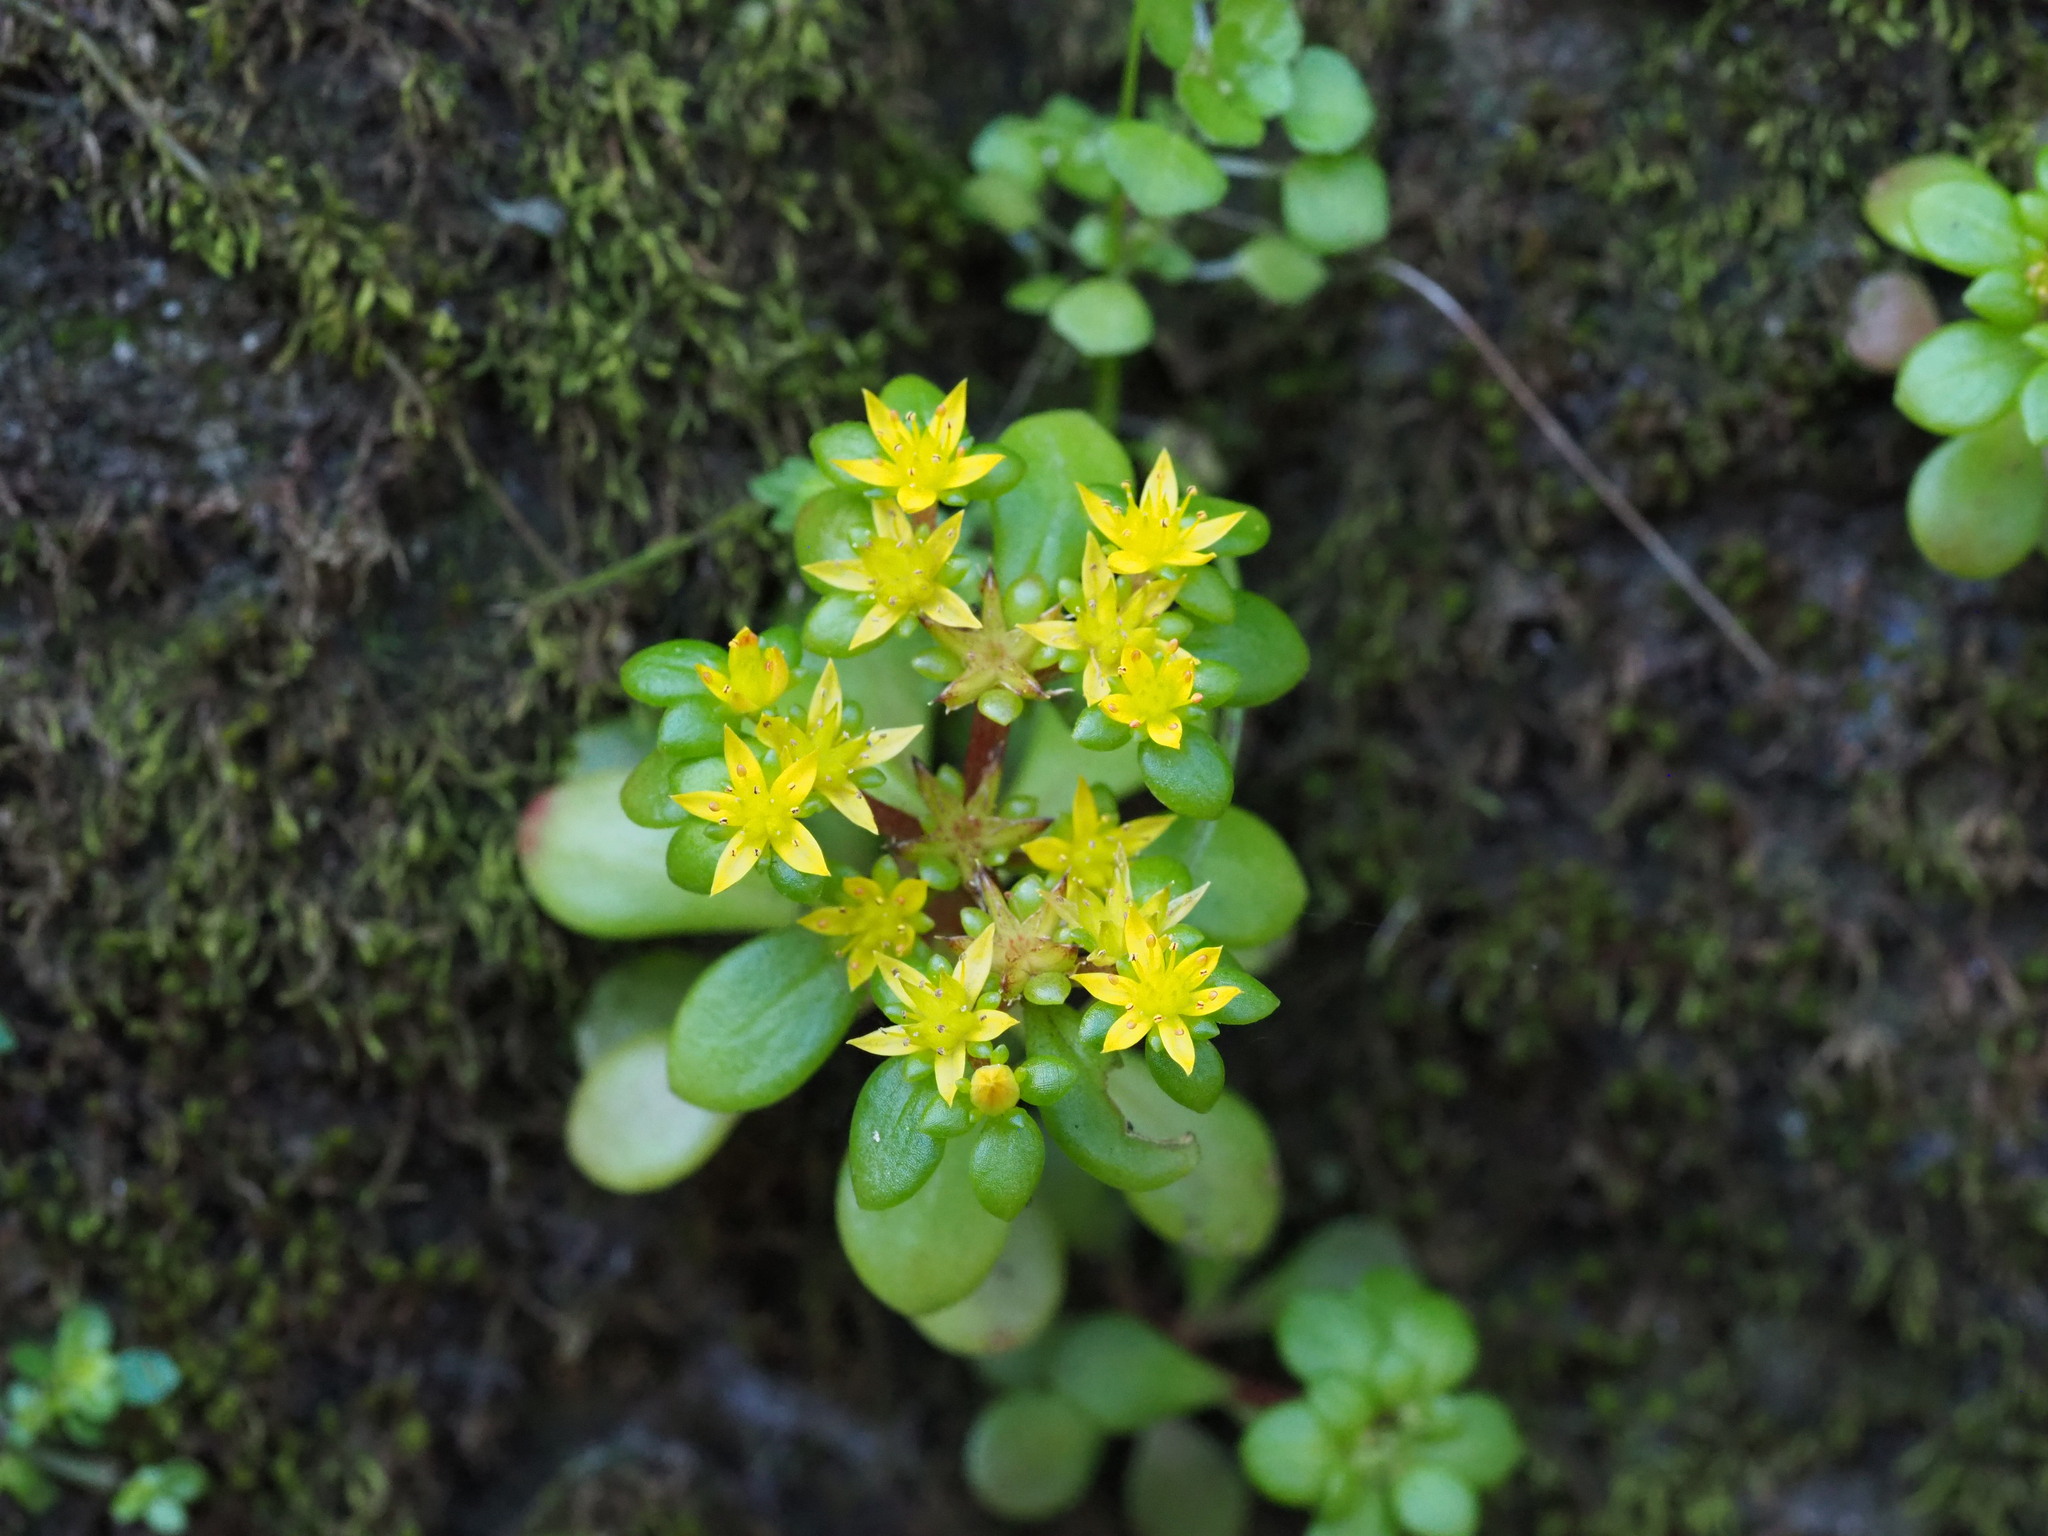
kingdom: Plantae
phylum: Tracheophyta
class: Magnoliopsida
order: Saxifragales
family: Crassulaceae
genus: Sedum
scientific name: Sedum actinocarpum
